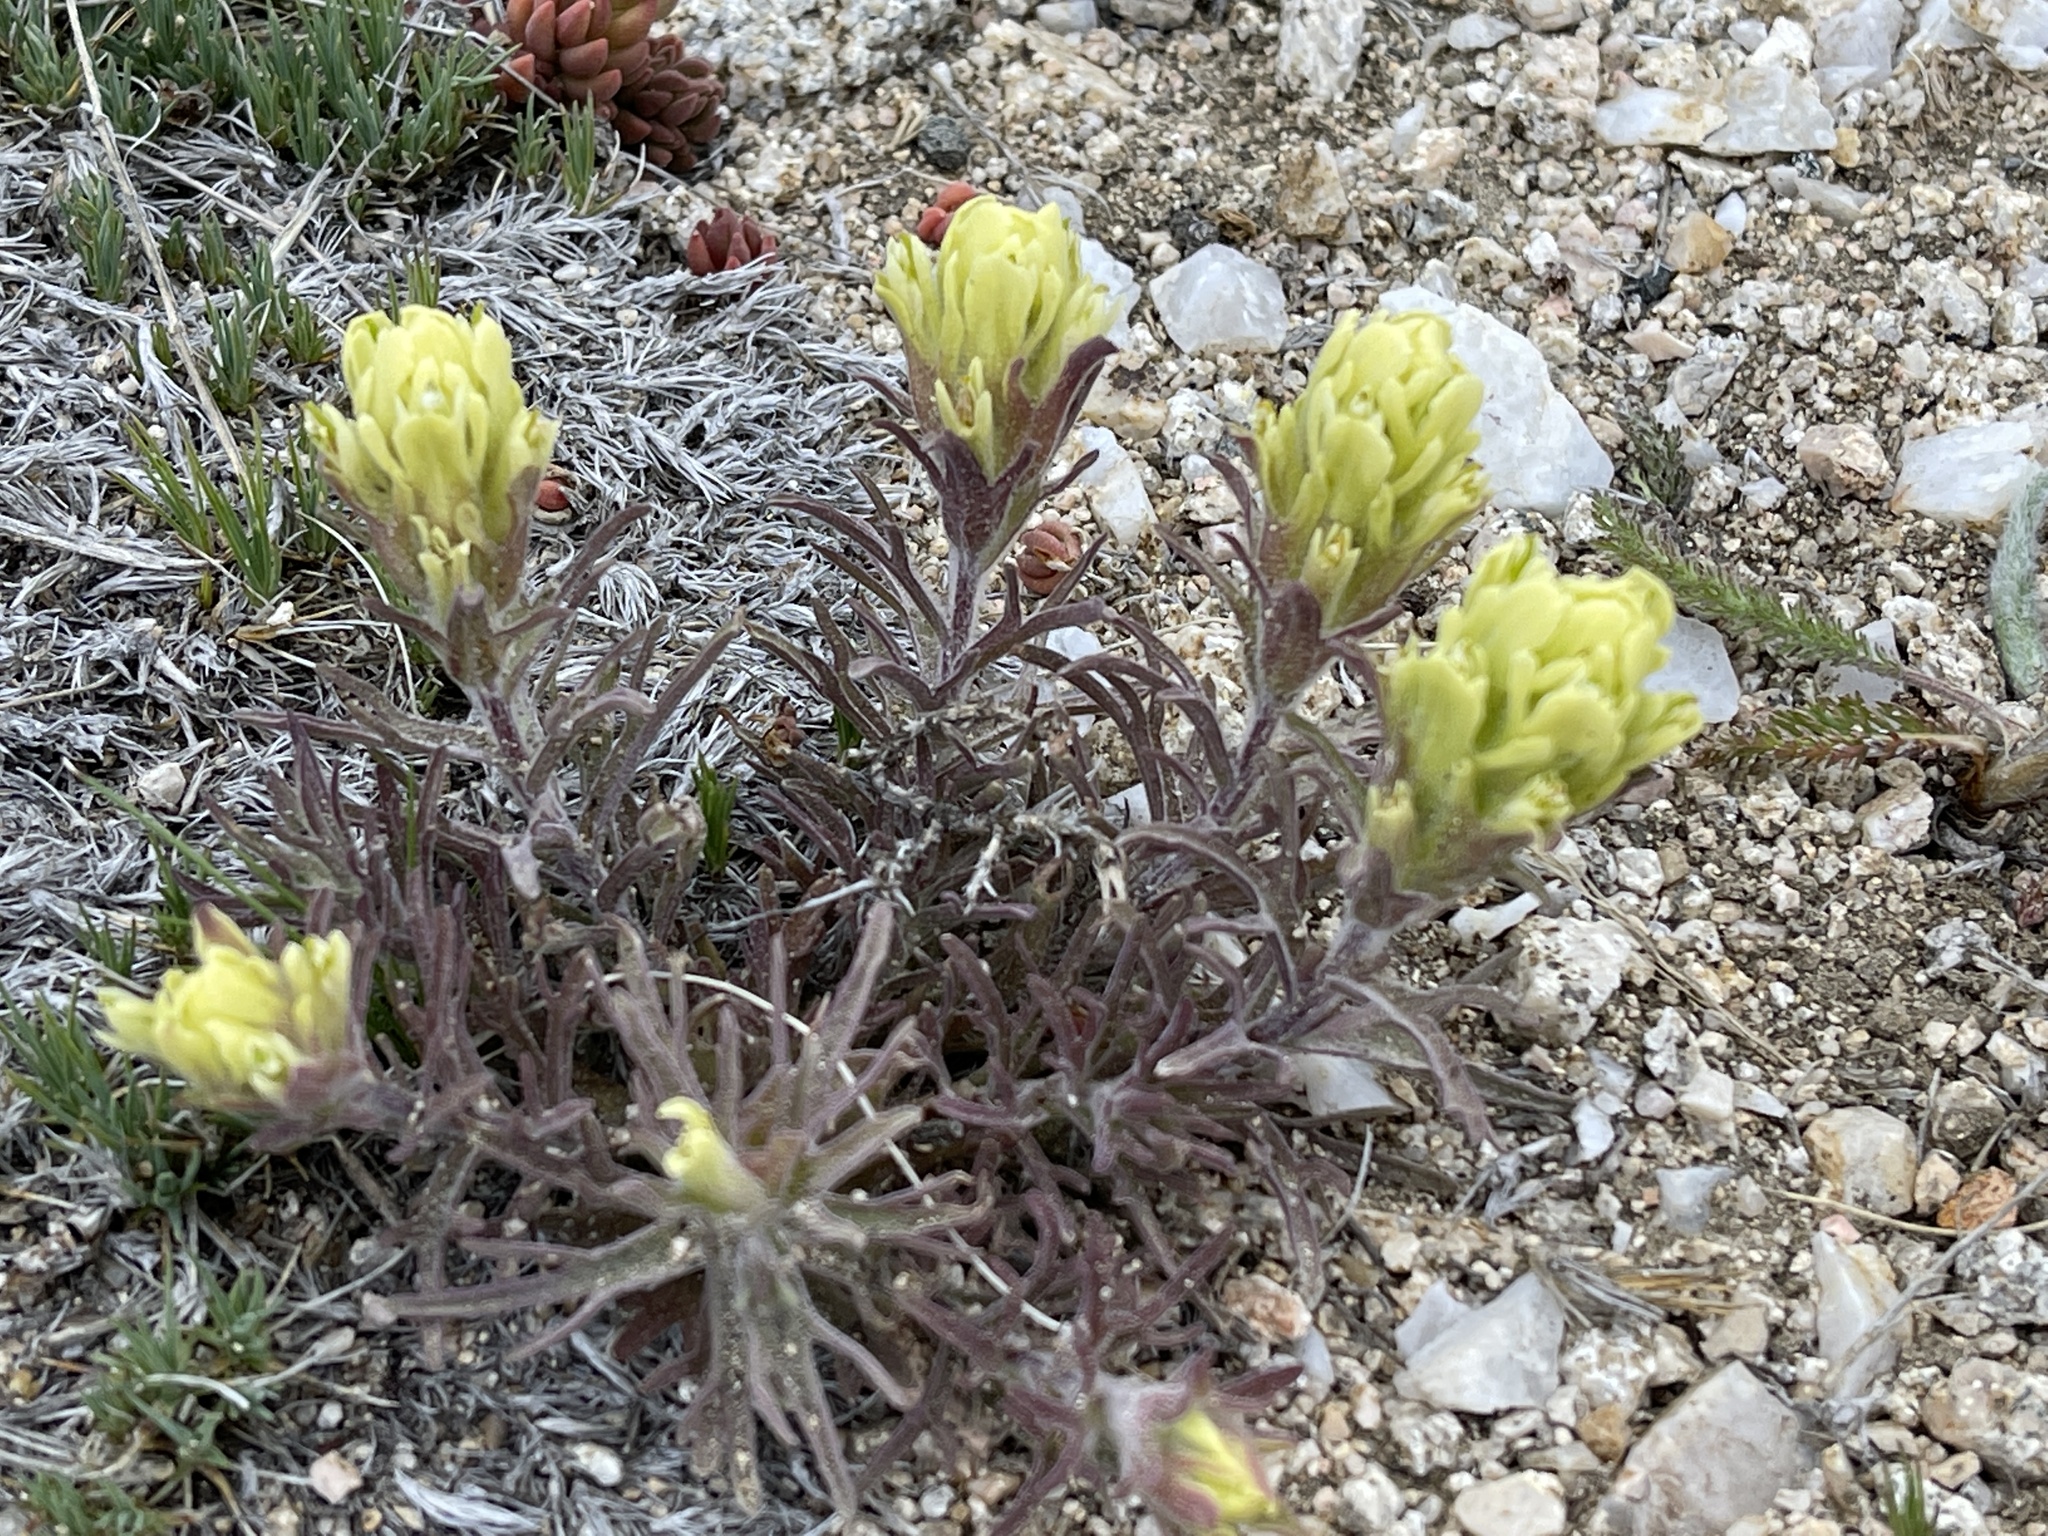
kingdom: Plantae
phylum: Tracheophyta
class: Magnoliopsida
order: Lamiales
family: Orobanchaceae
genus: Castilleja
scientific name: Castilleja arachnoidea
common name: Cobwebby indian paintbrush
